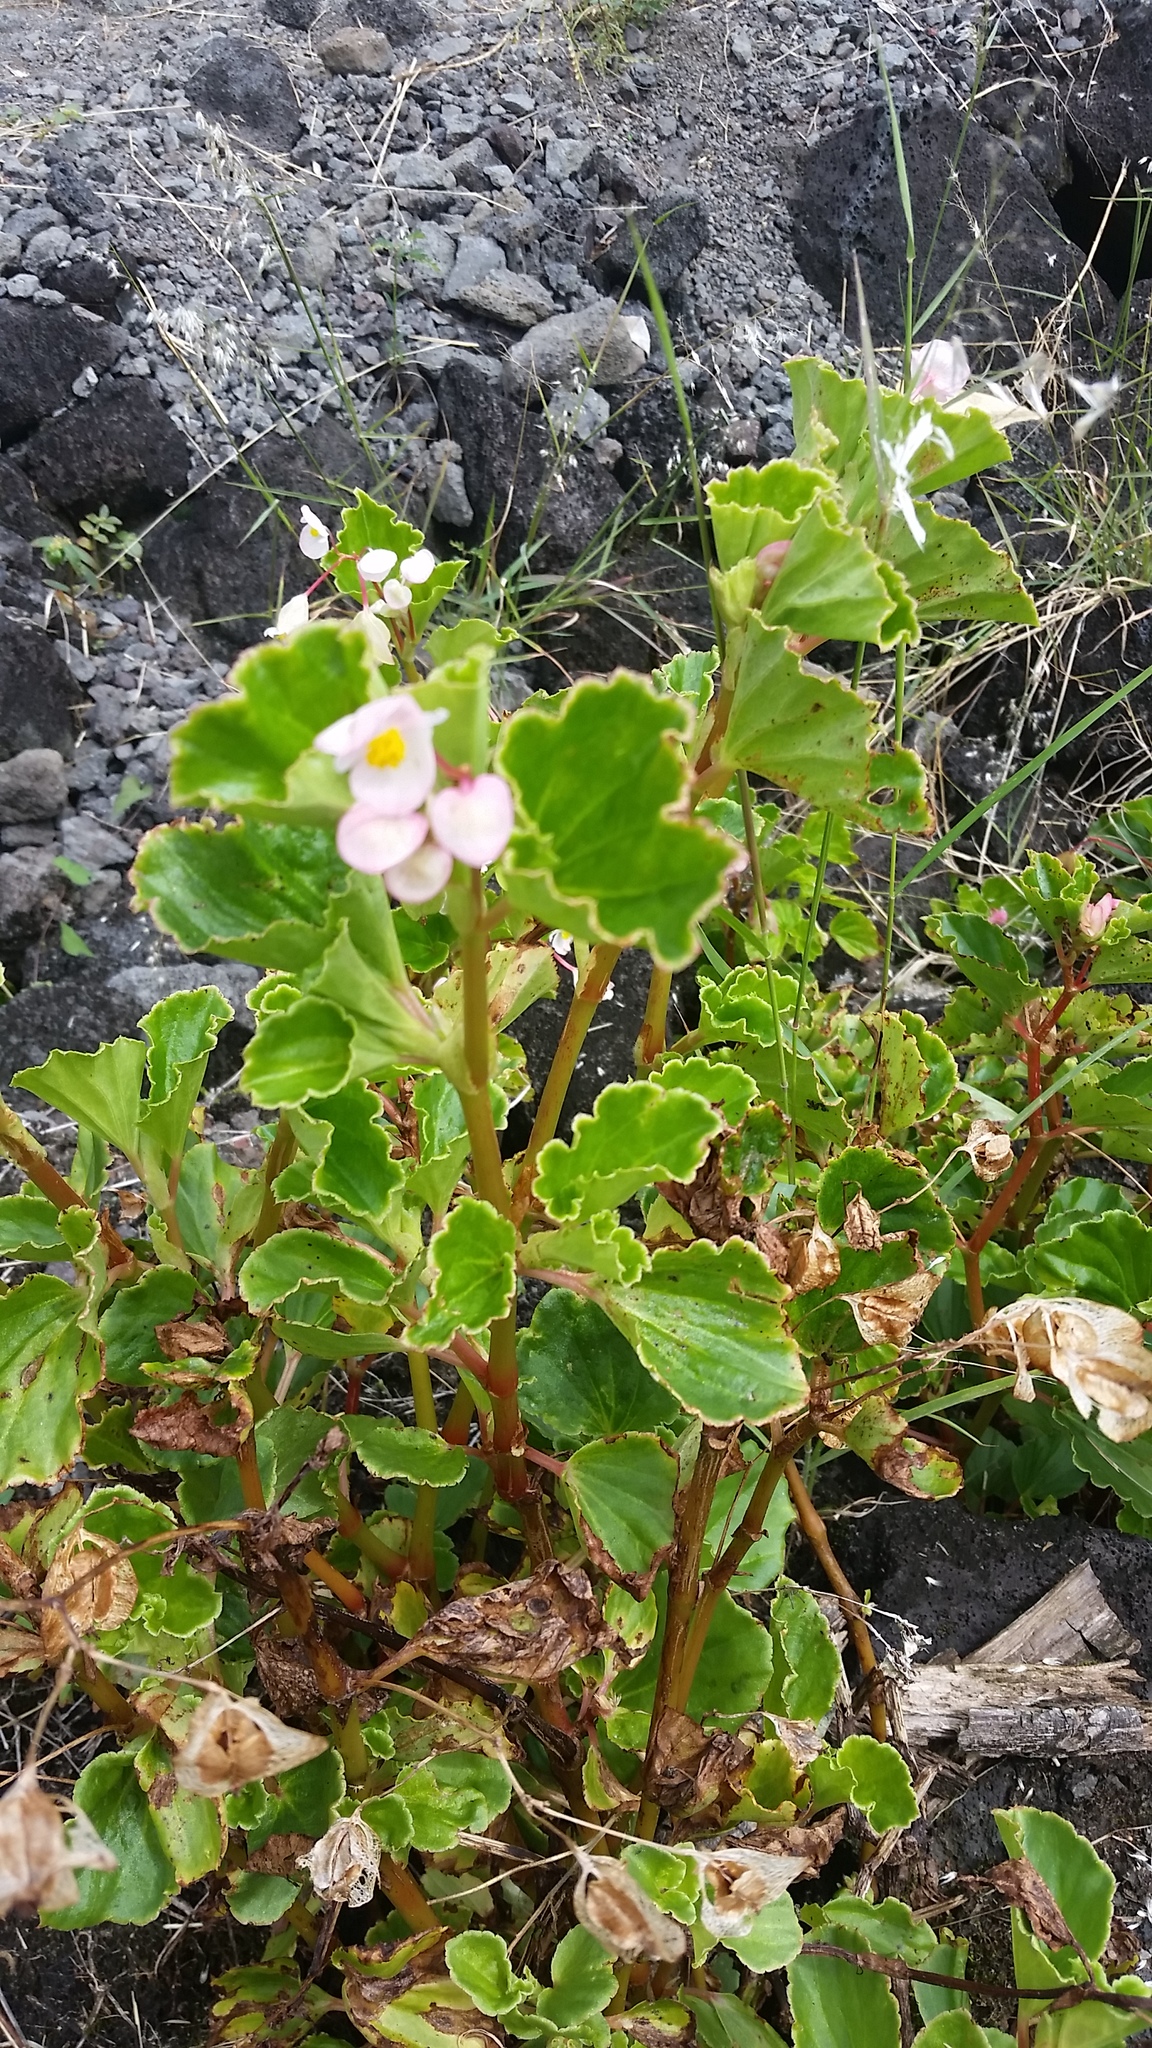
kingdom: Plantae
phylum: Tracheophyta
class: Magnoliopsida
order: Cucurbitales
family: Begoniaceae
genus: Begonia
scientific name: Begonia cucullata
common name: Clubbed begonia
